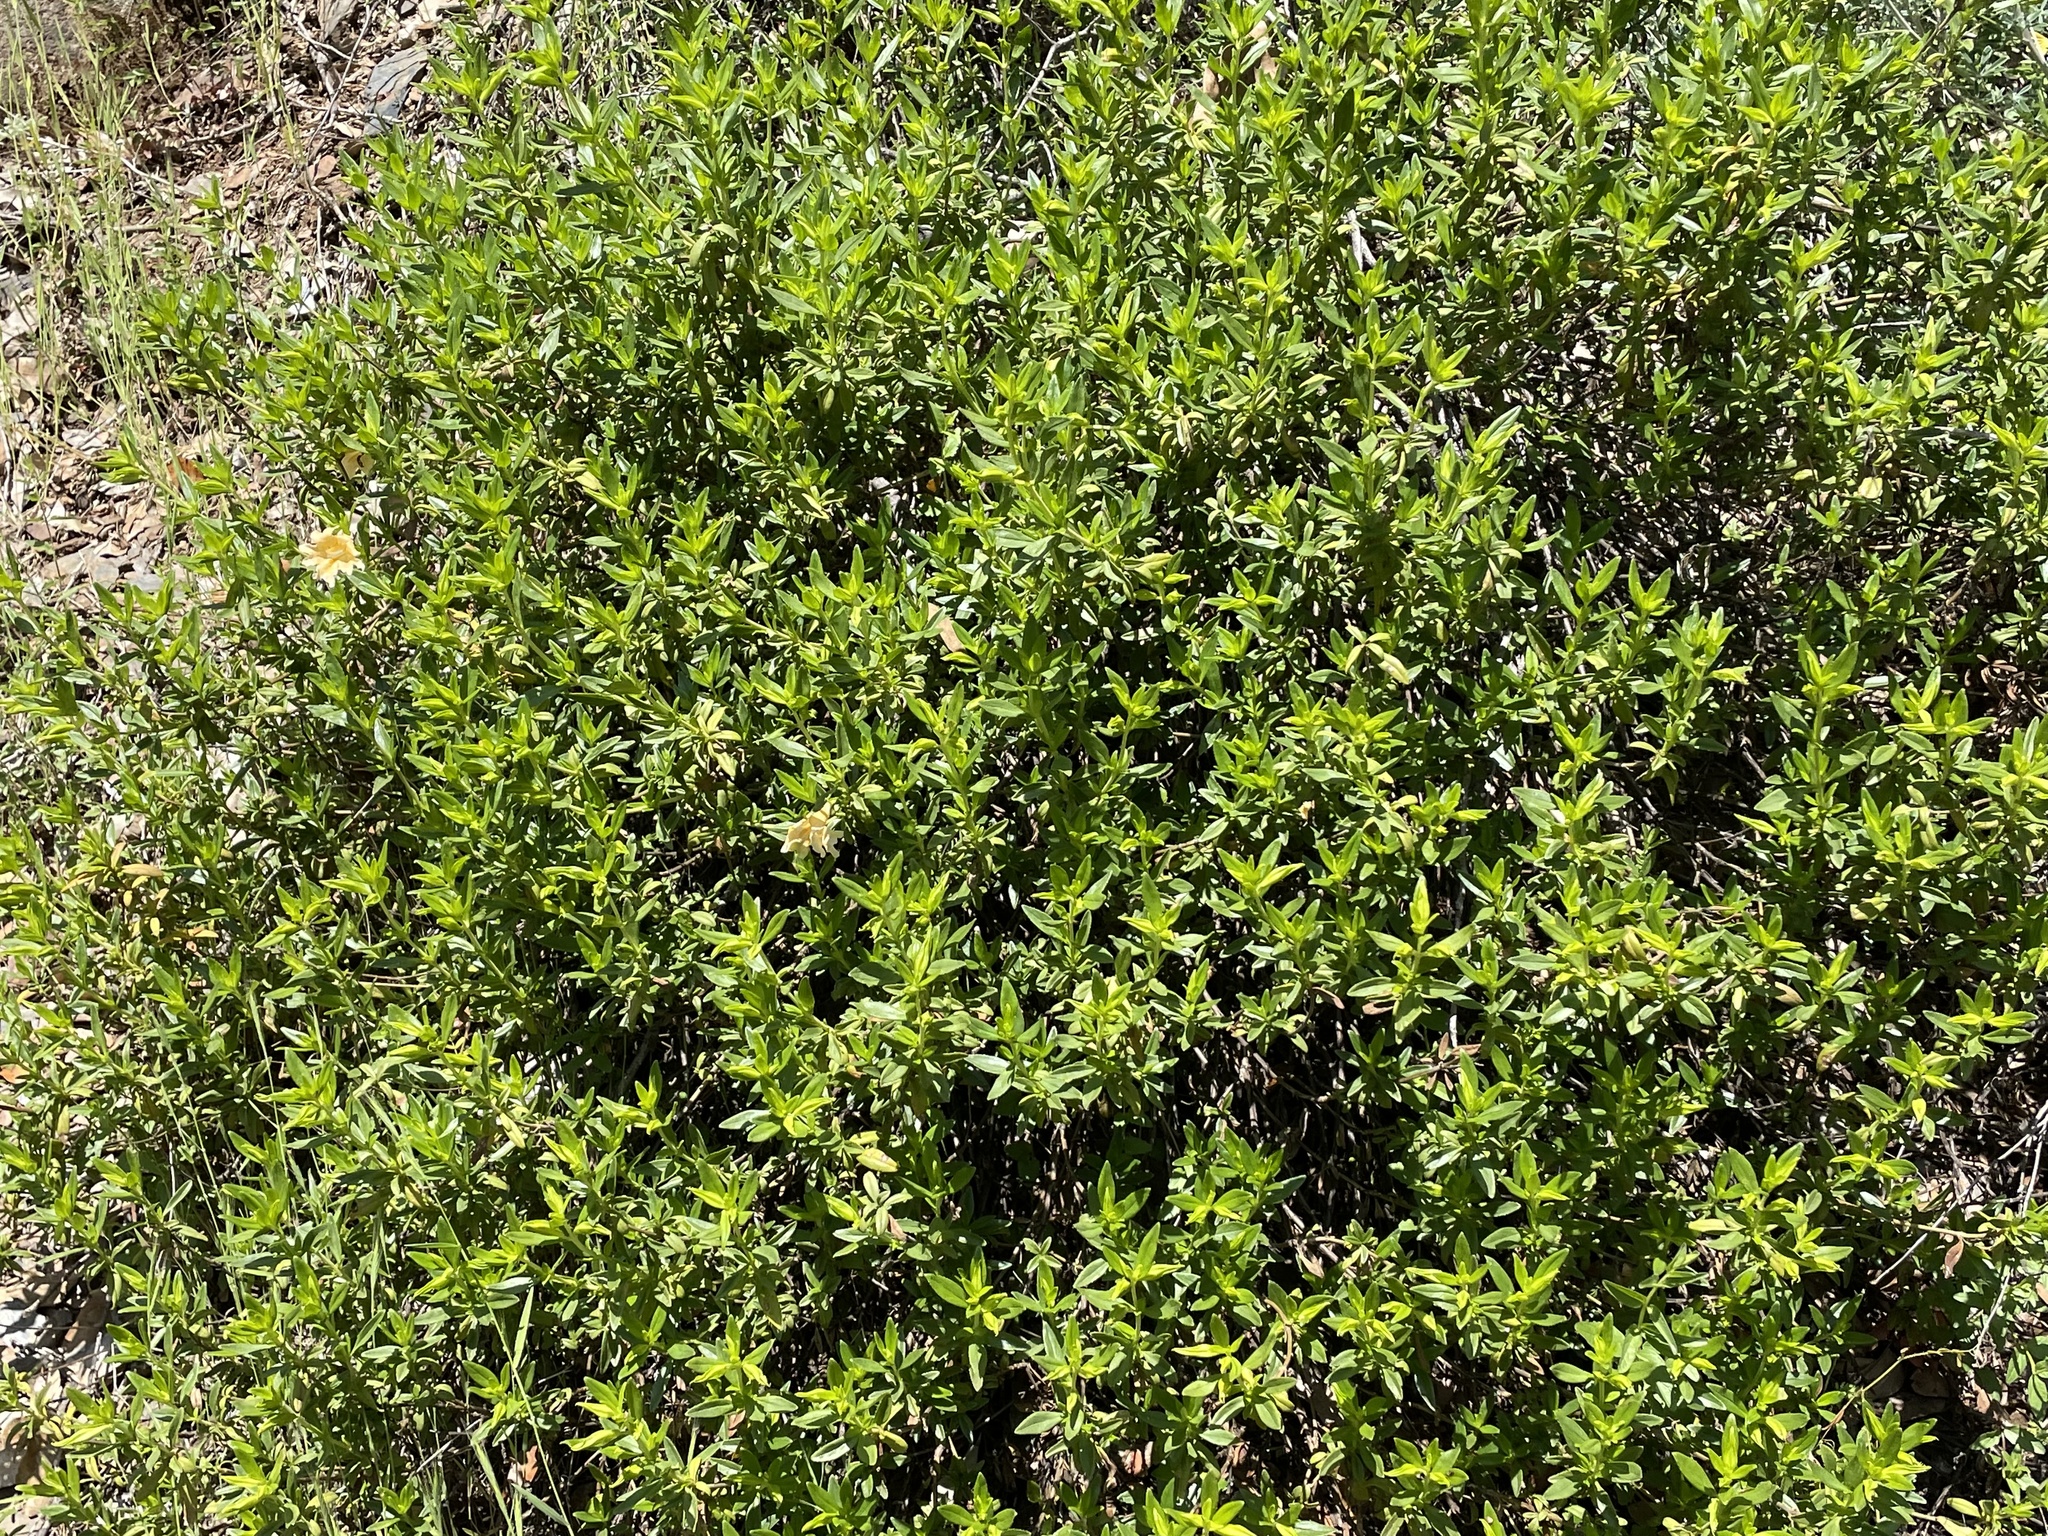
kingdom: Plantae
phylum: Tracheophyta
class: Magnoliopsida
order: Lamiales
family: Phrymaceae
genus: Diplacus
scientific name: Diplacus grandiflorus
